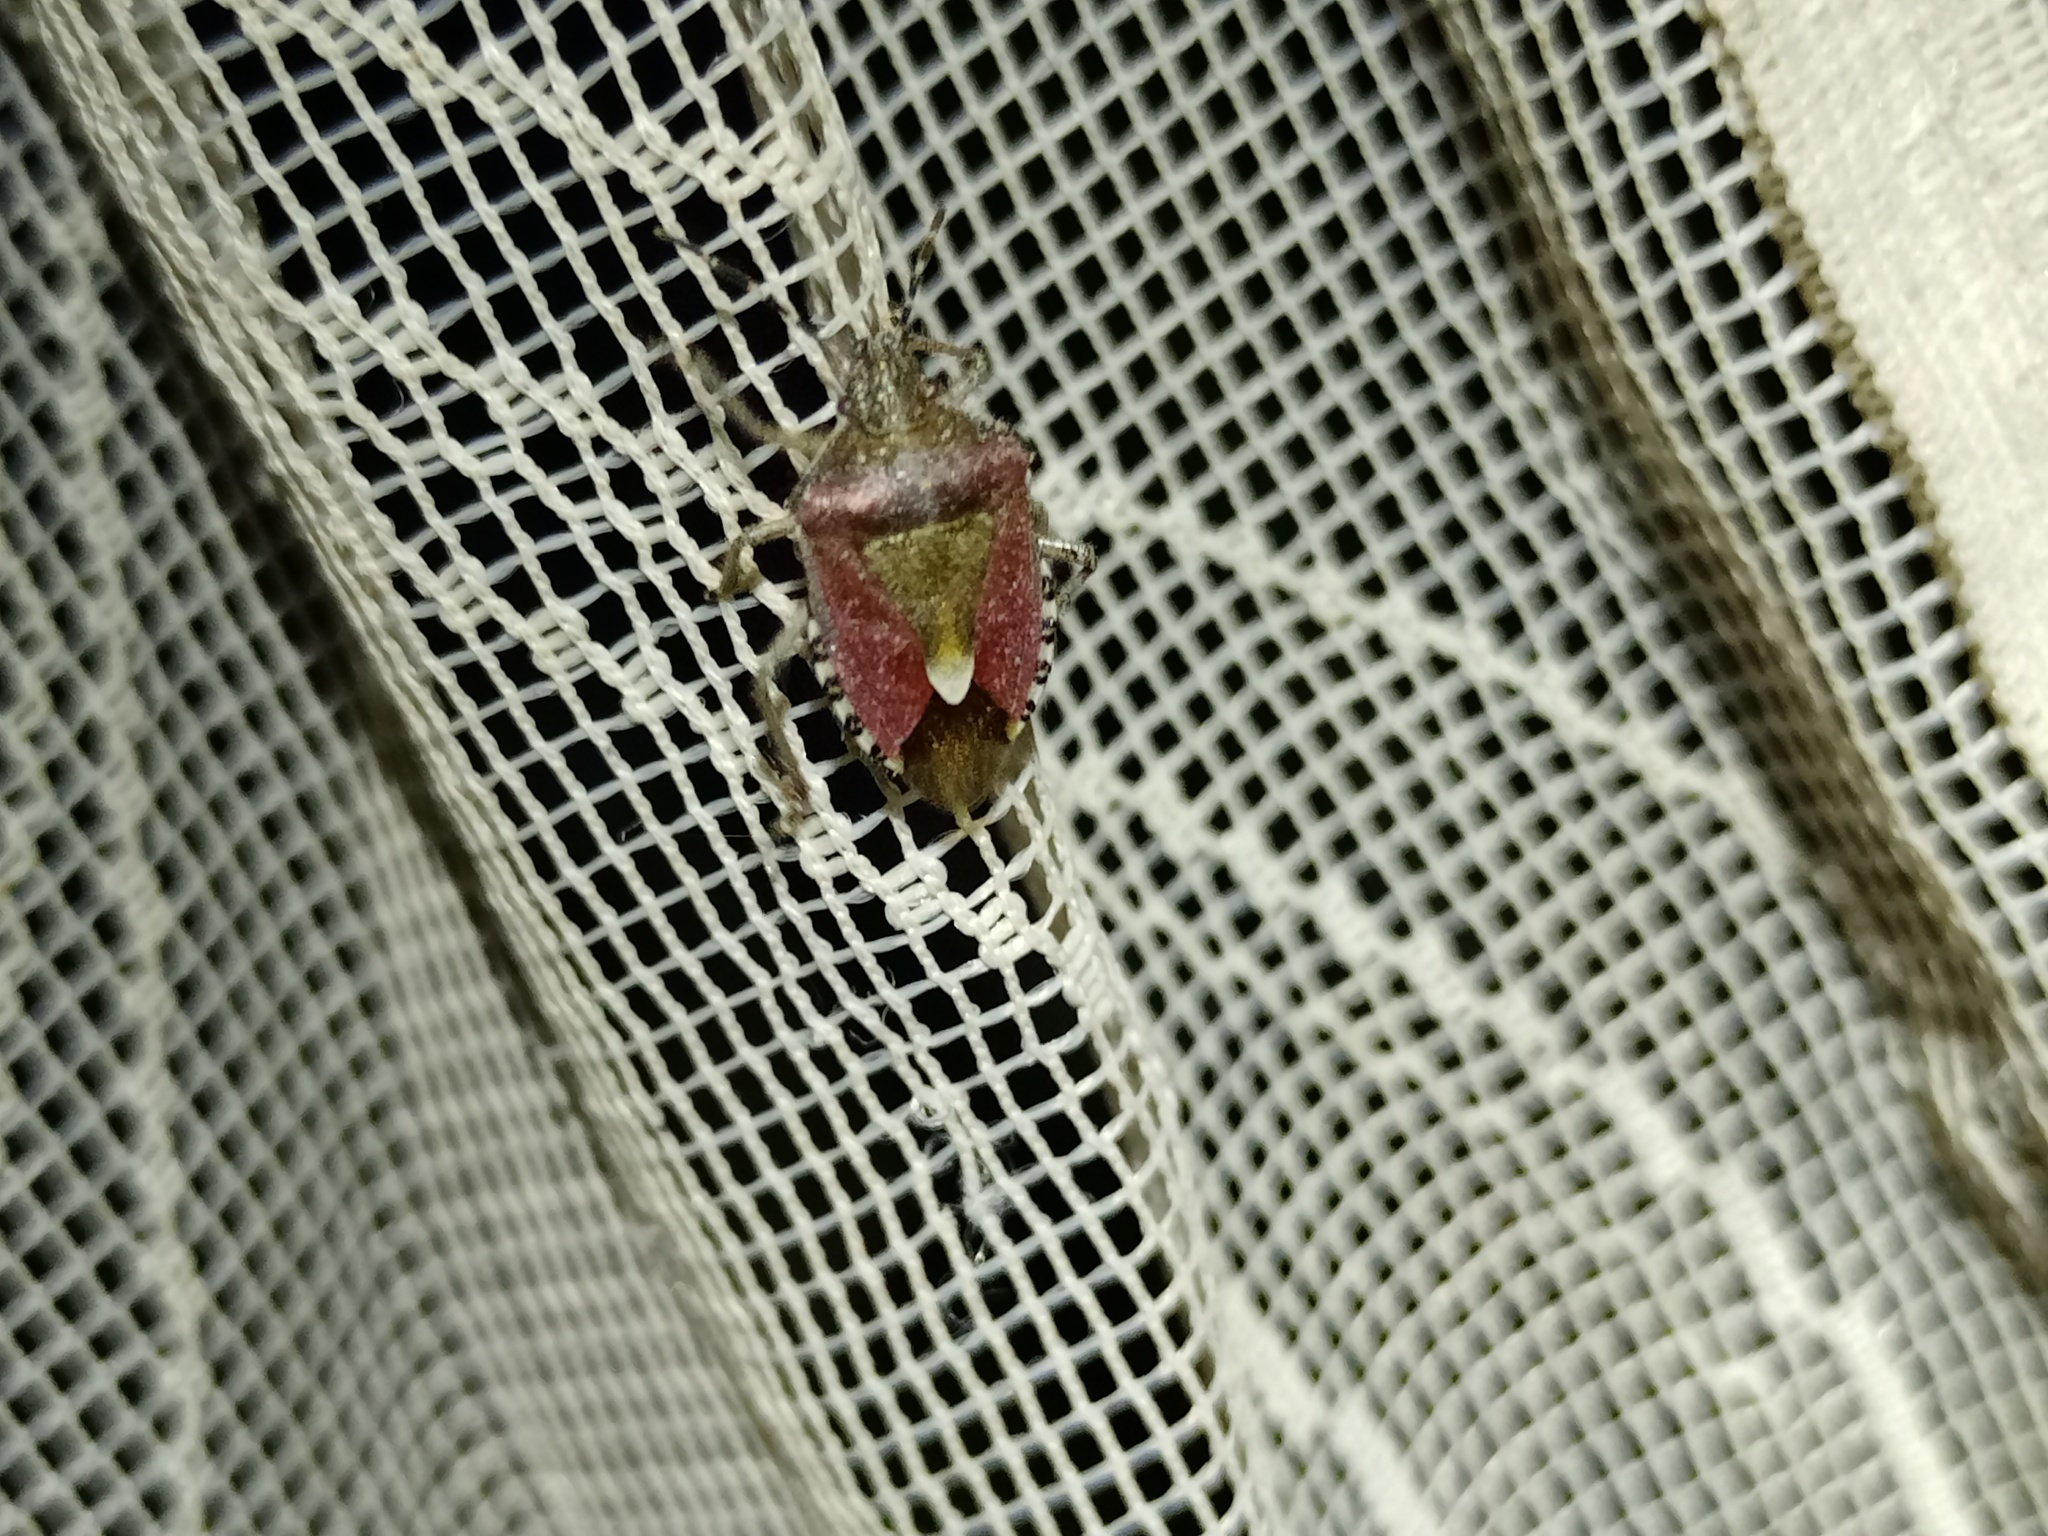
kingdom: Animalia
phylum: Arthropoda
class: Insecta
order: Hemiptera
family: Pentatomidae
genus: Dolycoris
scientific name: Dolycoris baccarum
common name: Sloe bug
